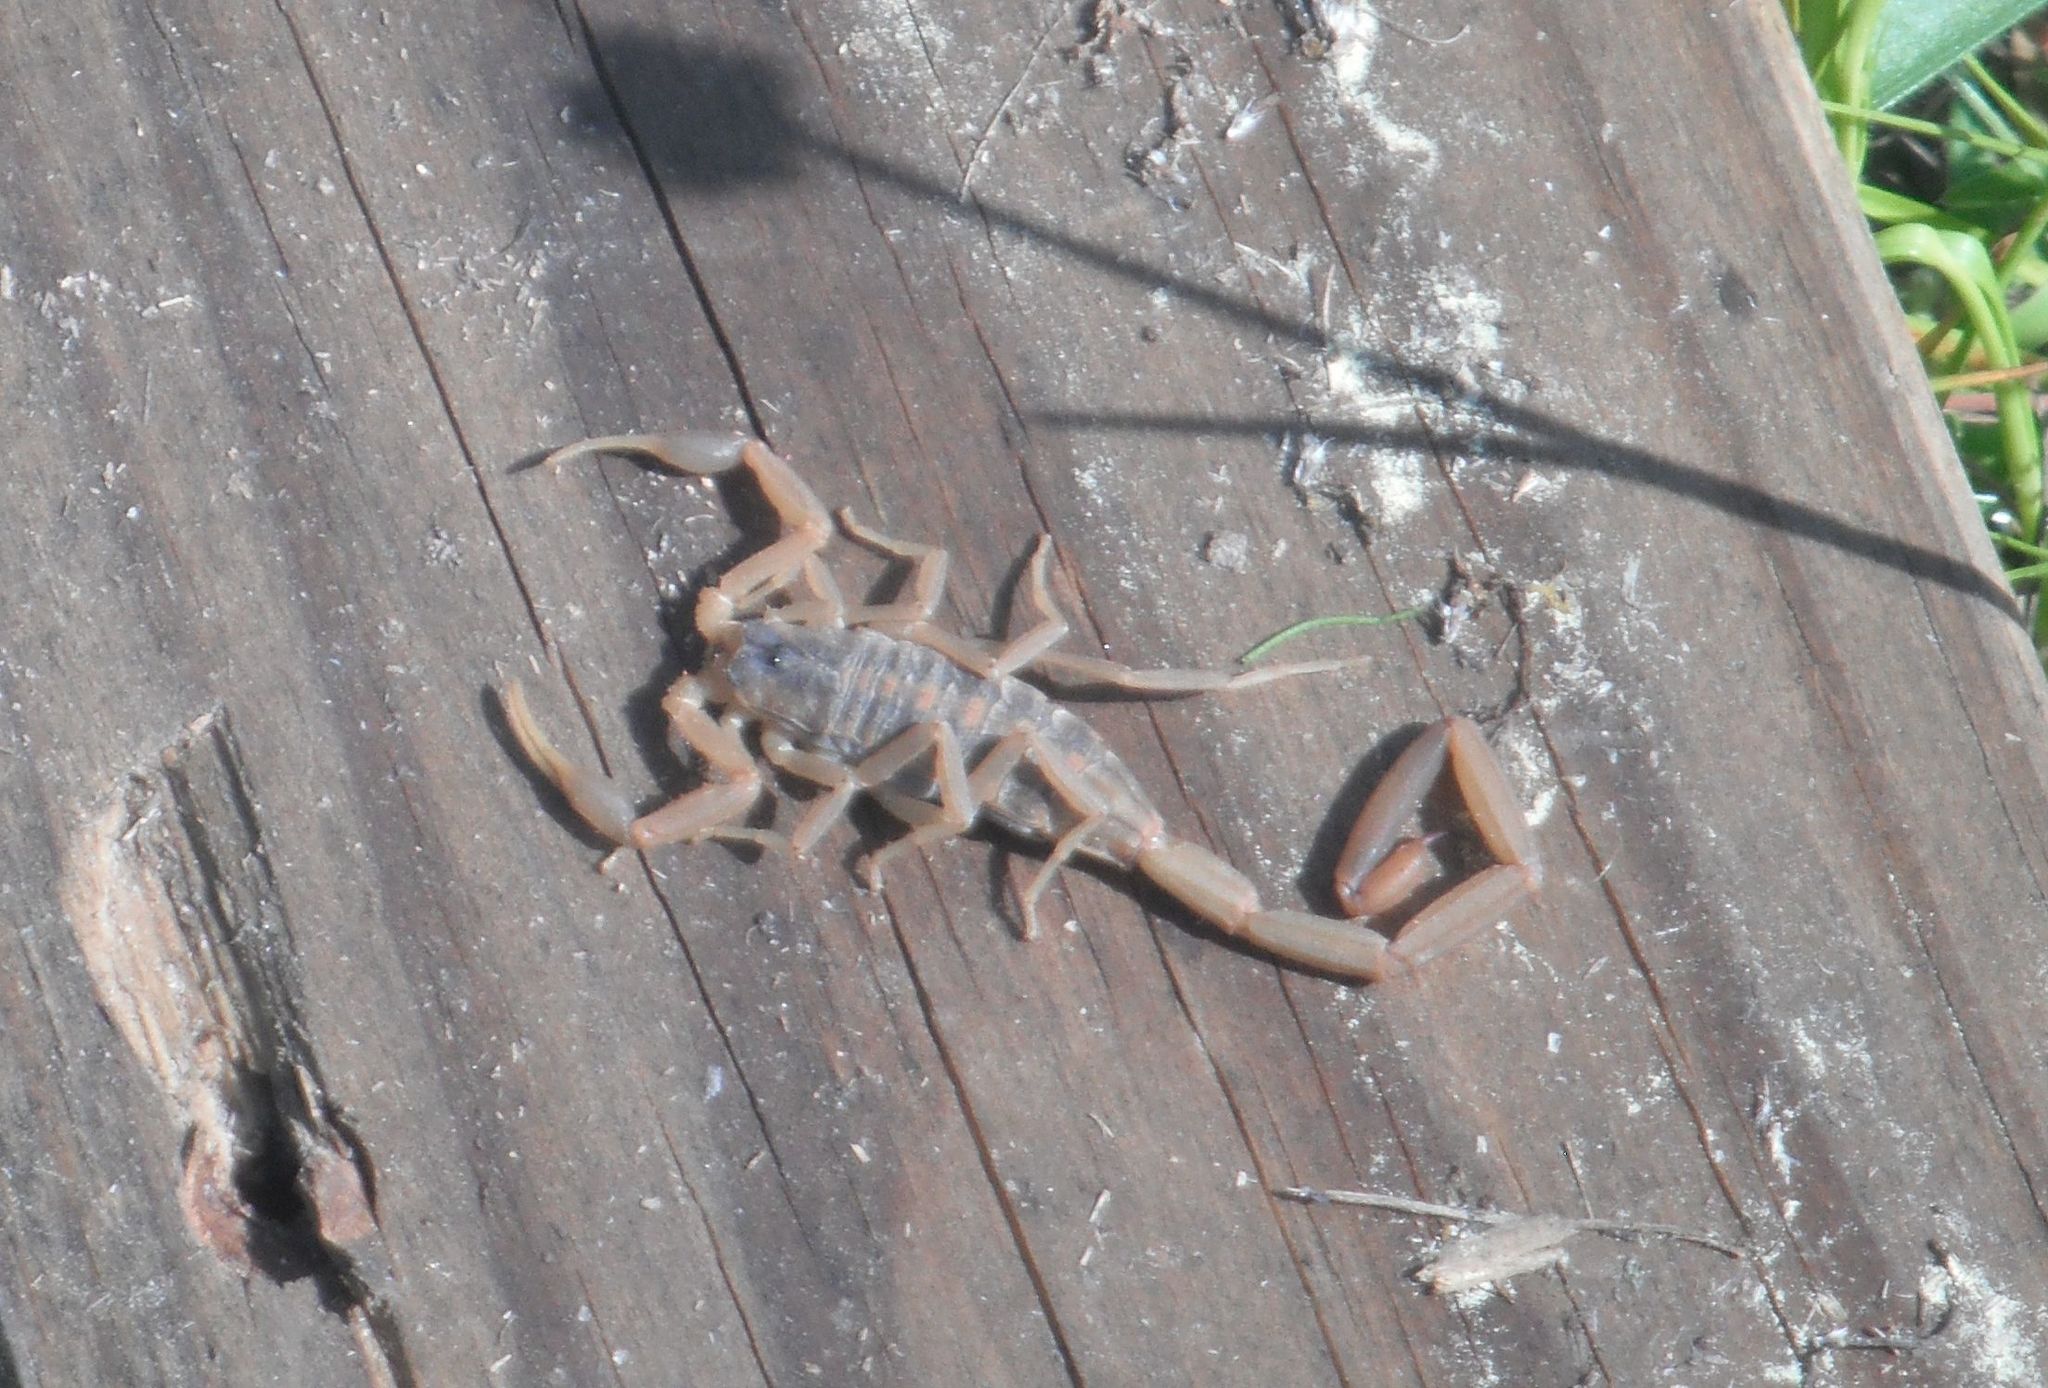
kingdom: Animalia
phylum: Arthropoda
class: Arachnida
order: Scorpiones
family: Buthidae
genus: Centruroides
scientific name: Centruroides vittatus
